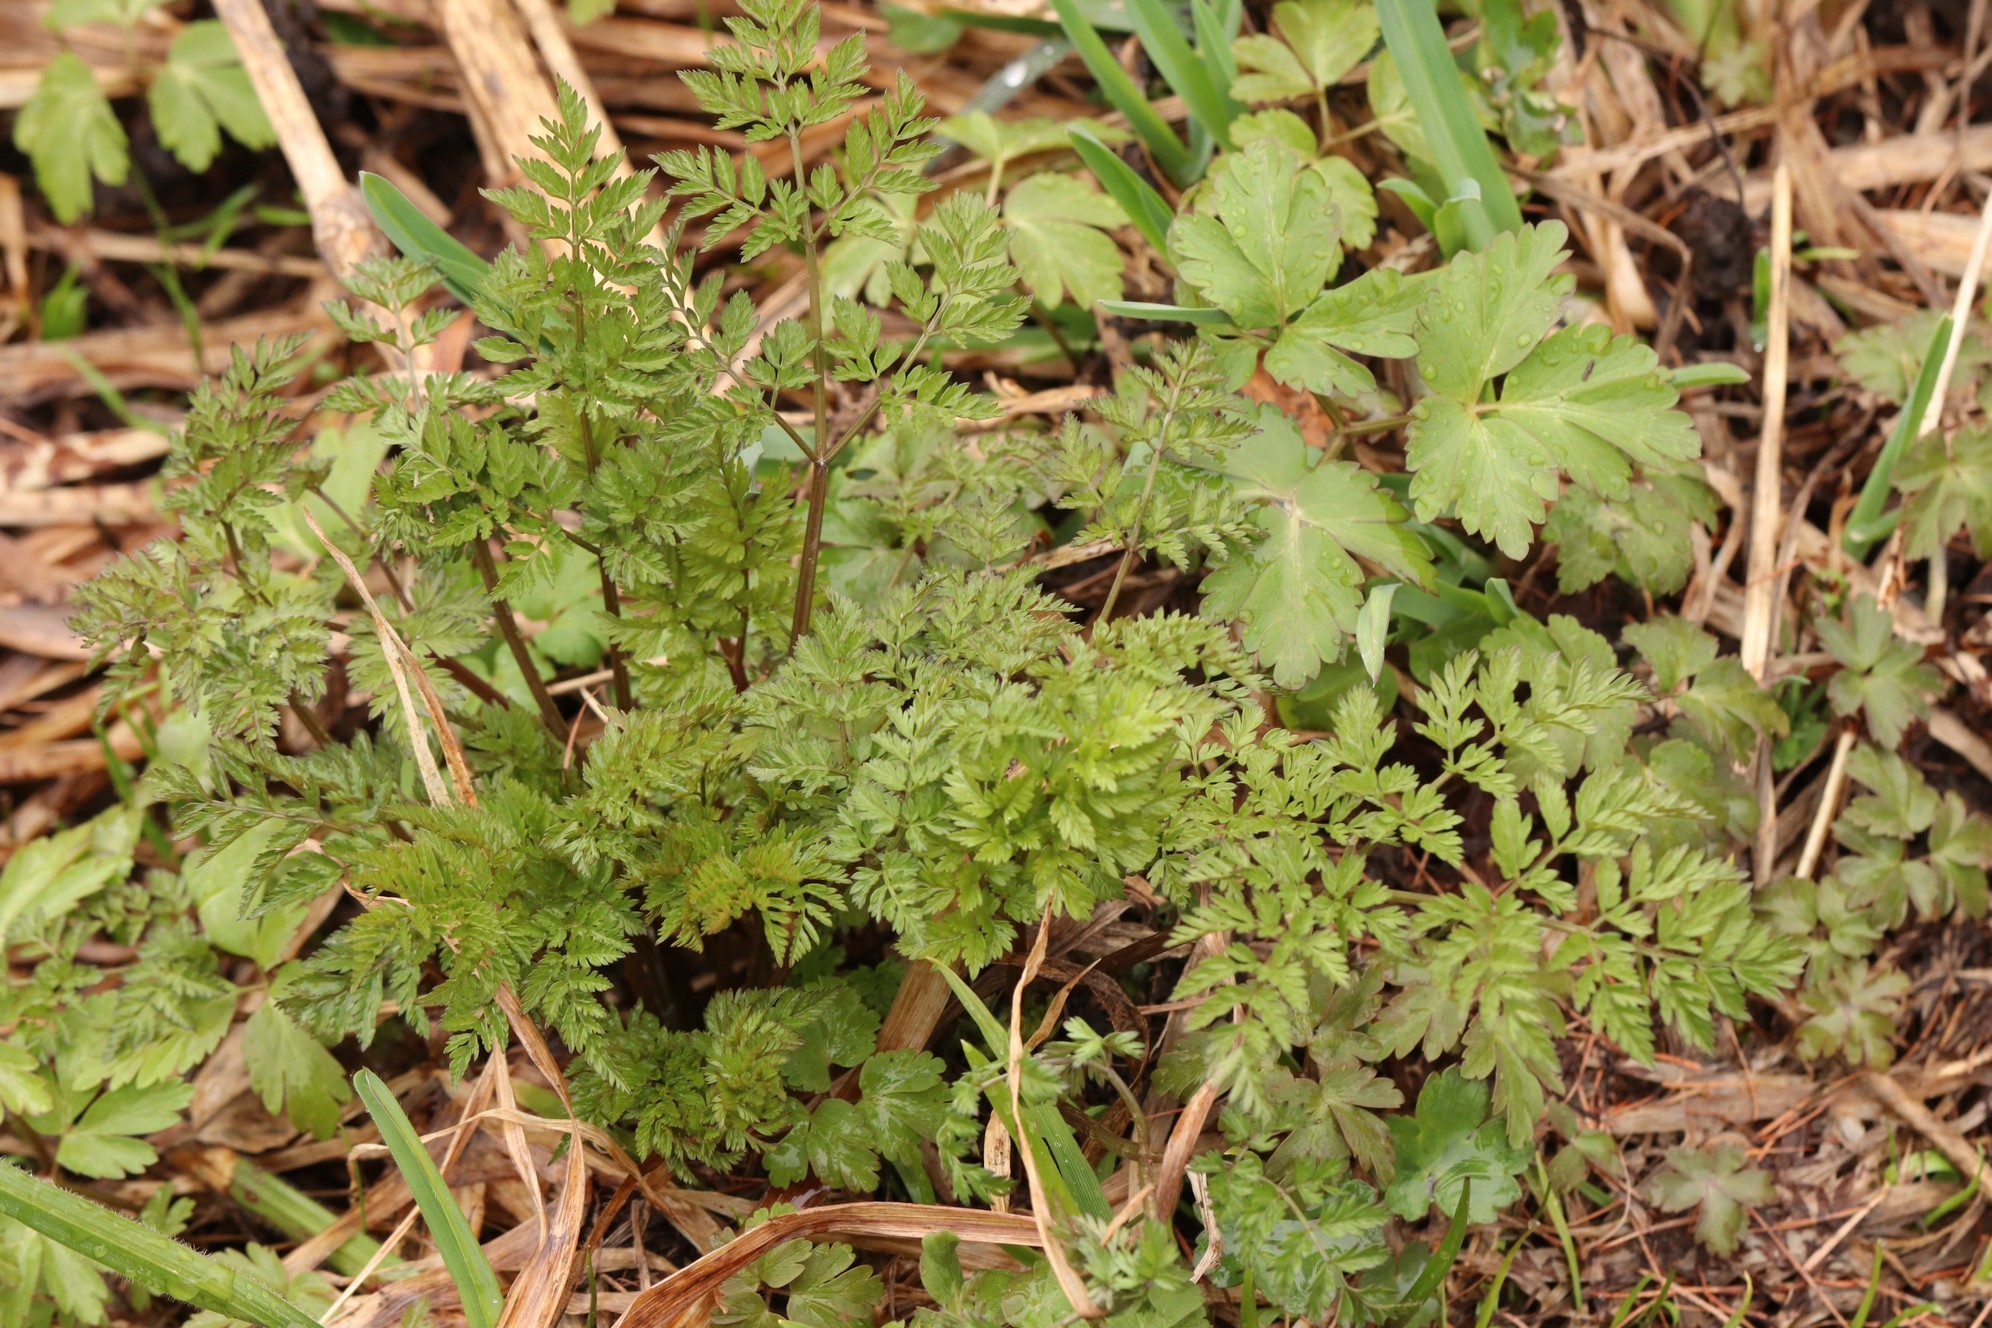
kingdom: Plantae
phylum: Tracheophyta
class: Magnoliopsida
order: Apiales
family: Apiaceae
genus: Anthriscus
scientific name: Anthriscus sylvestris
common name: Cow parsley
